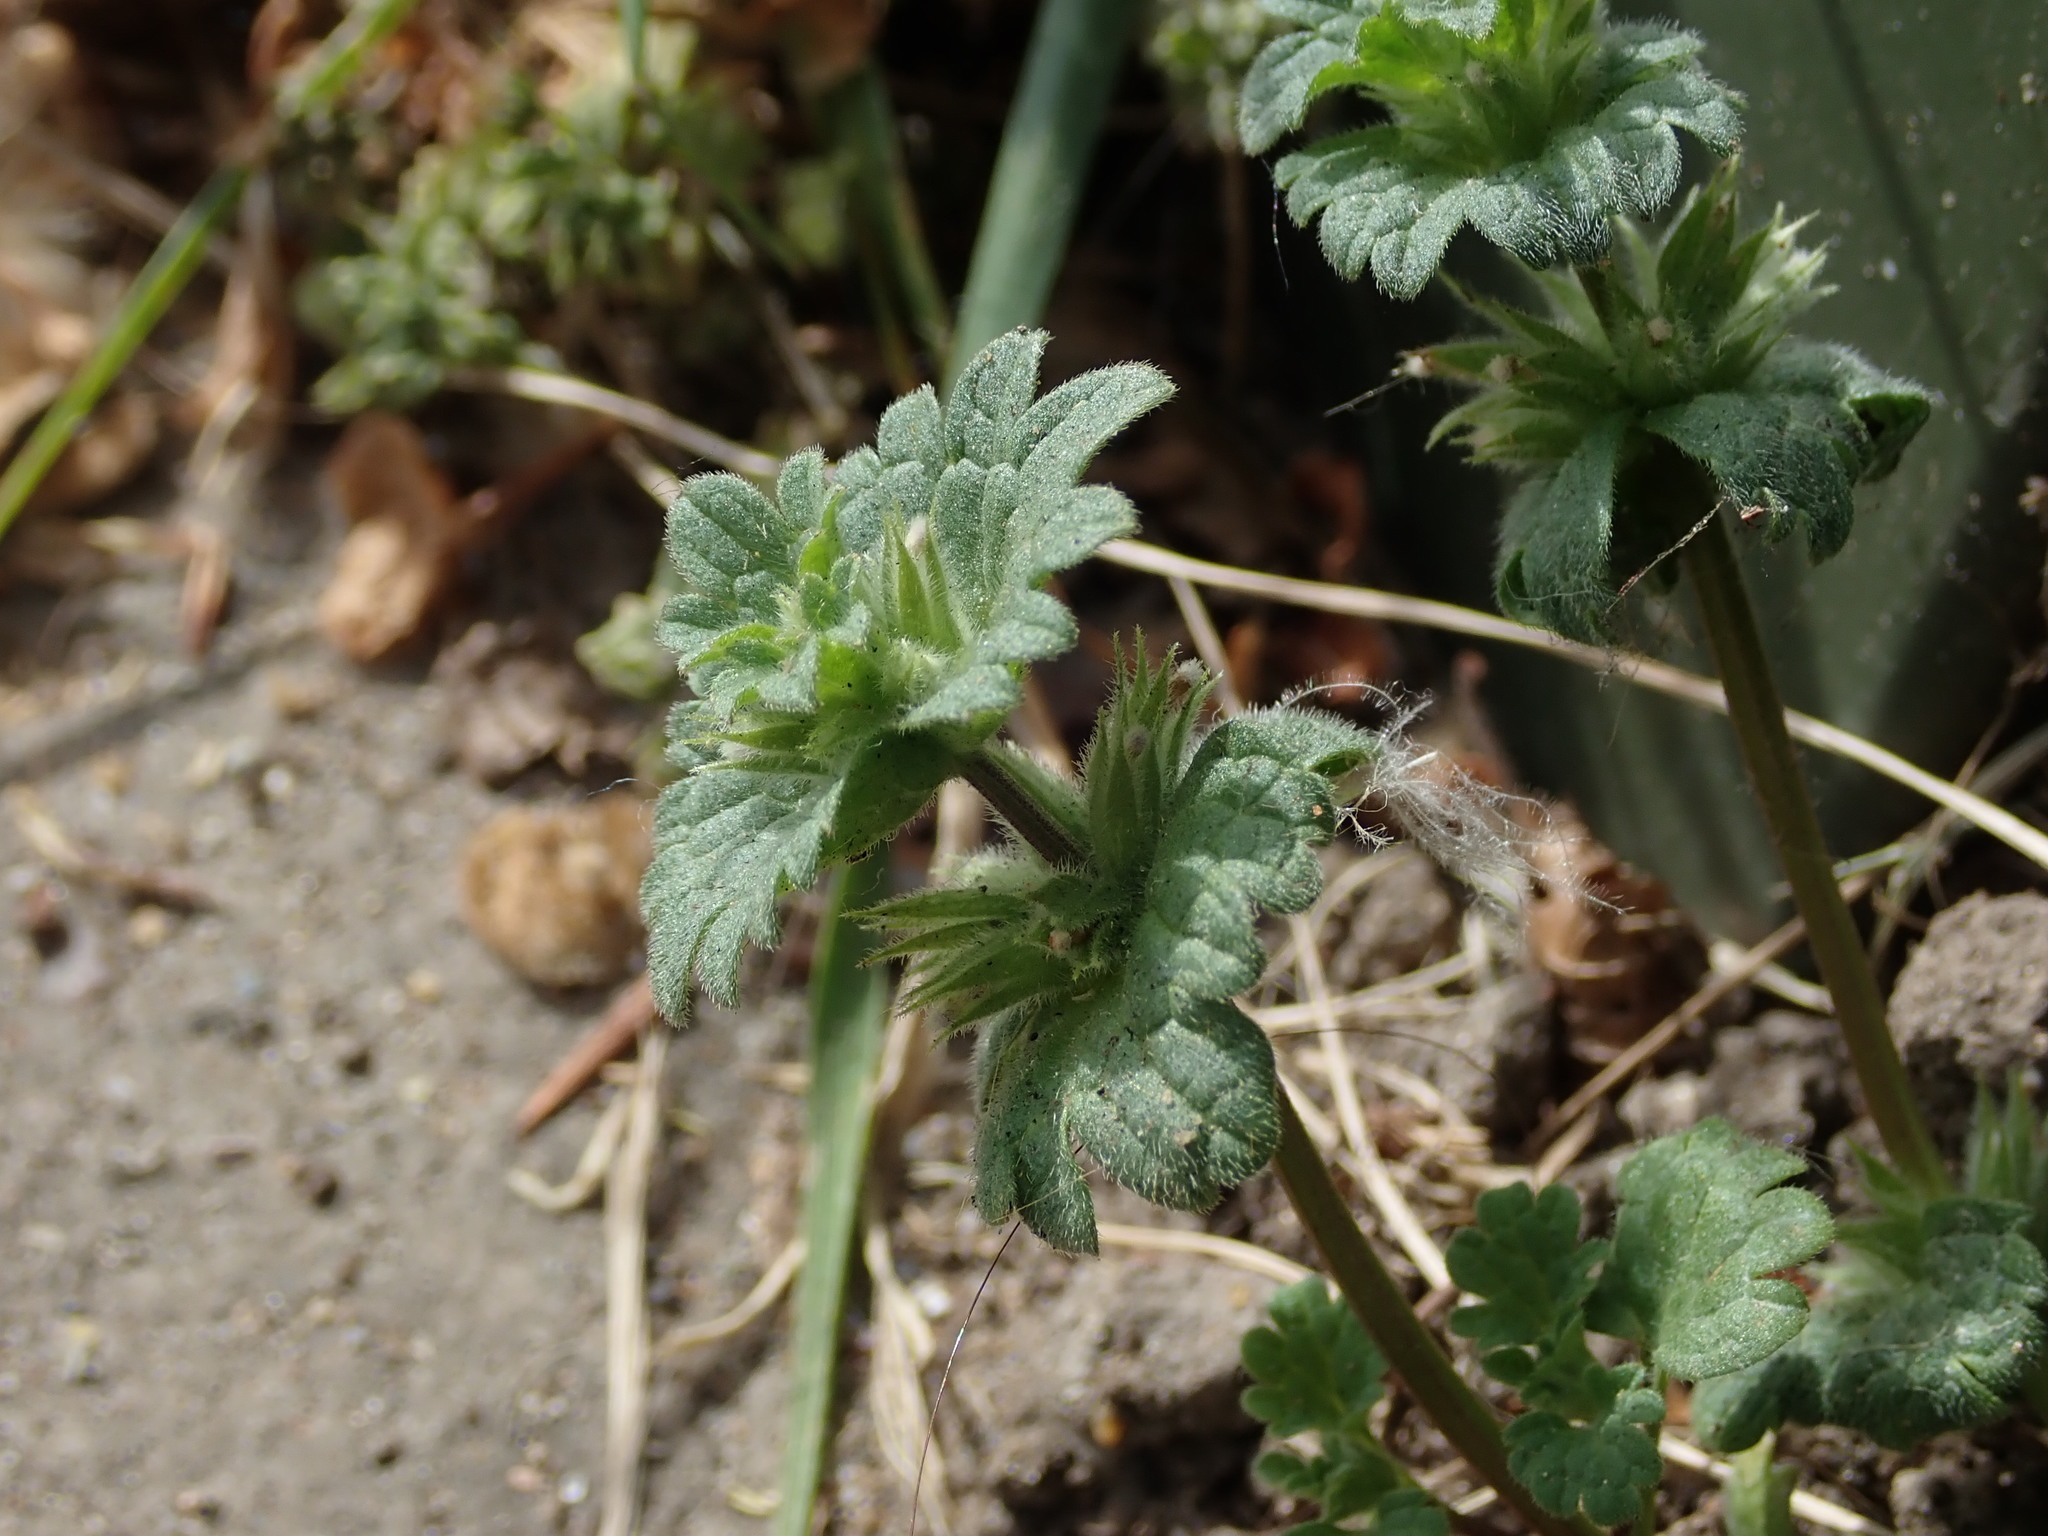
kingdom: Plantae
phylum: Tracheophyta
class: Magnoliopsida
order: Lamiales
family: Lamiaceae
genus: Lamium
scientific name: Lamium amplexicaule
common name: Henbit dead-nettle
